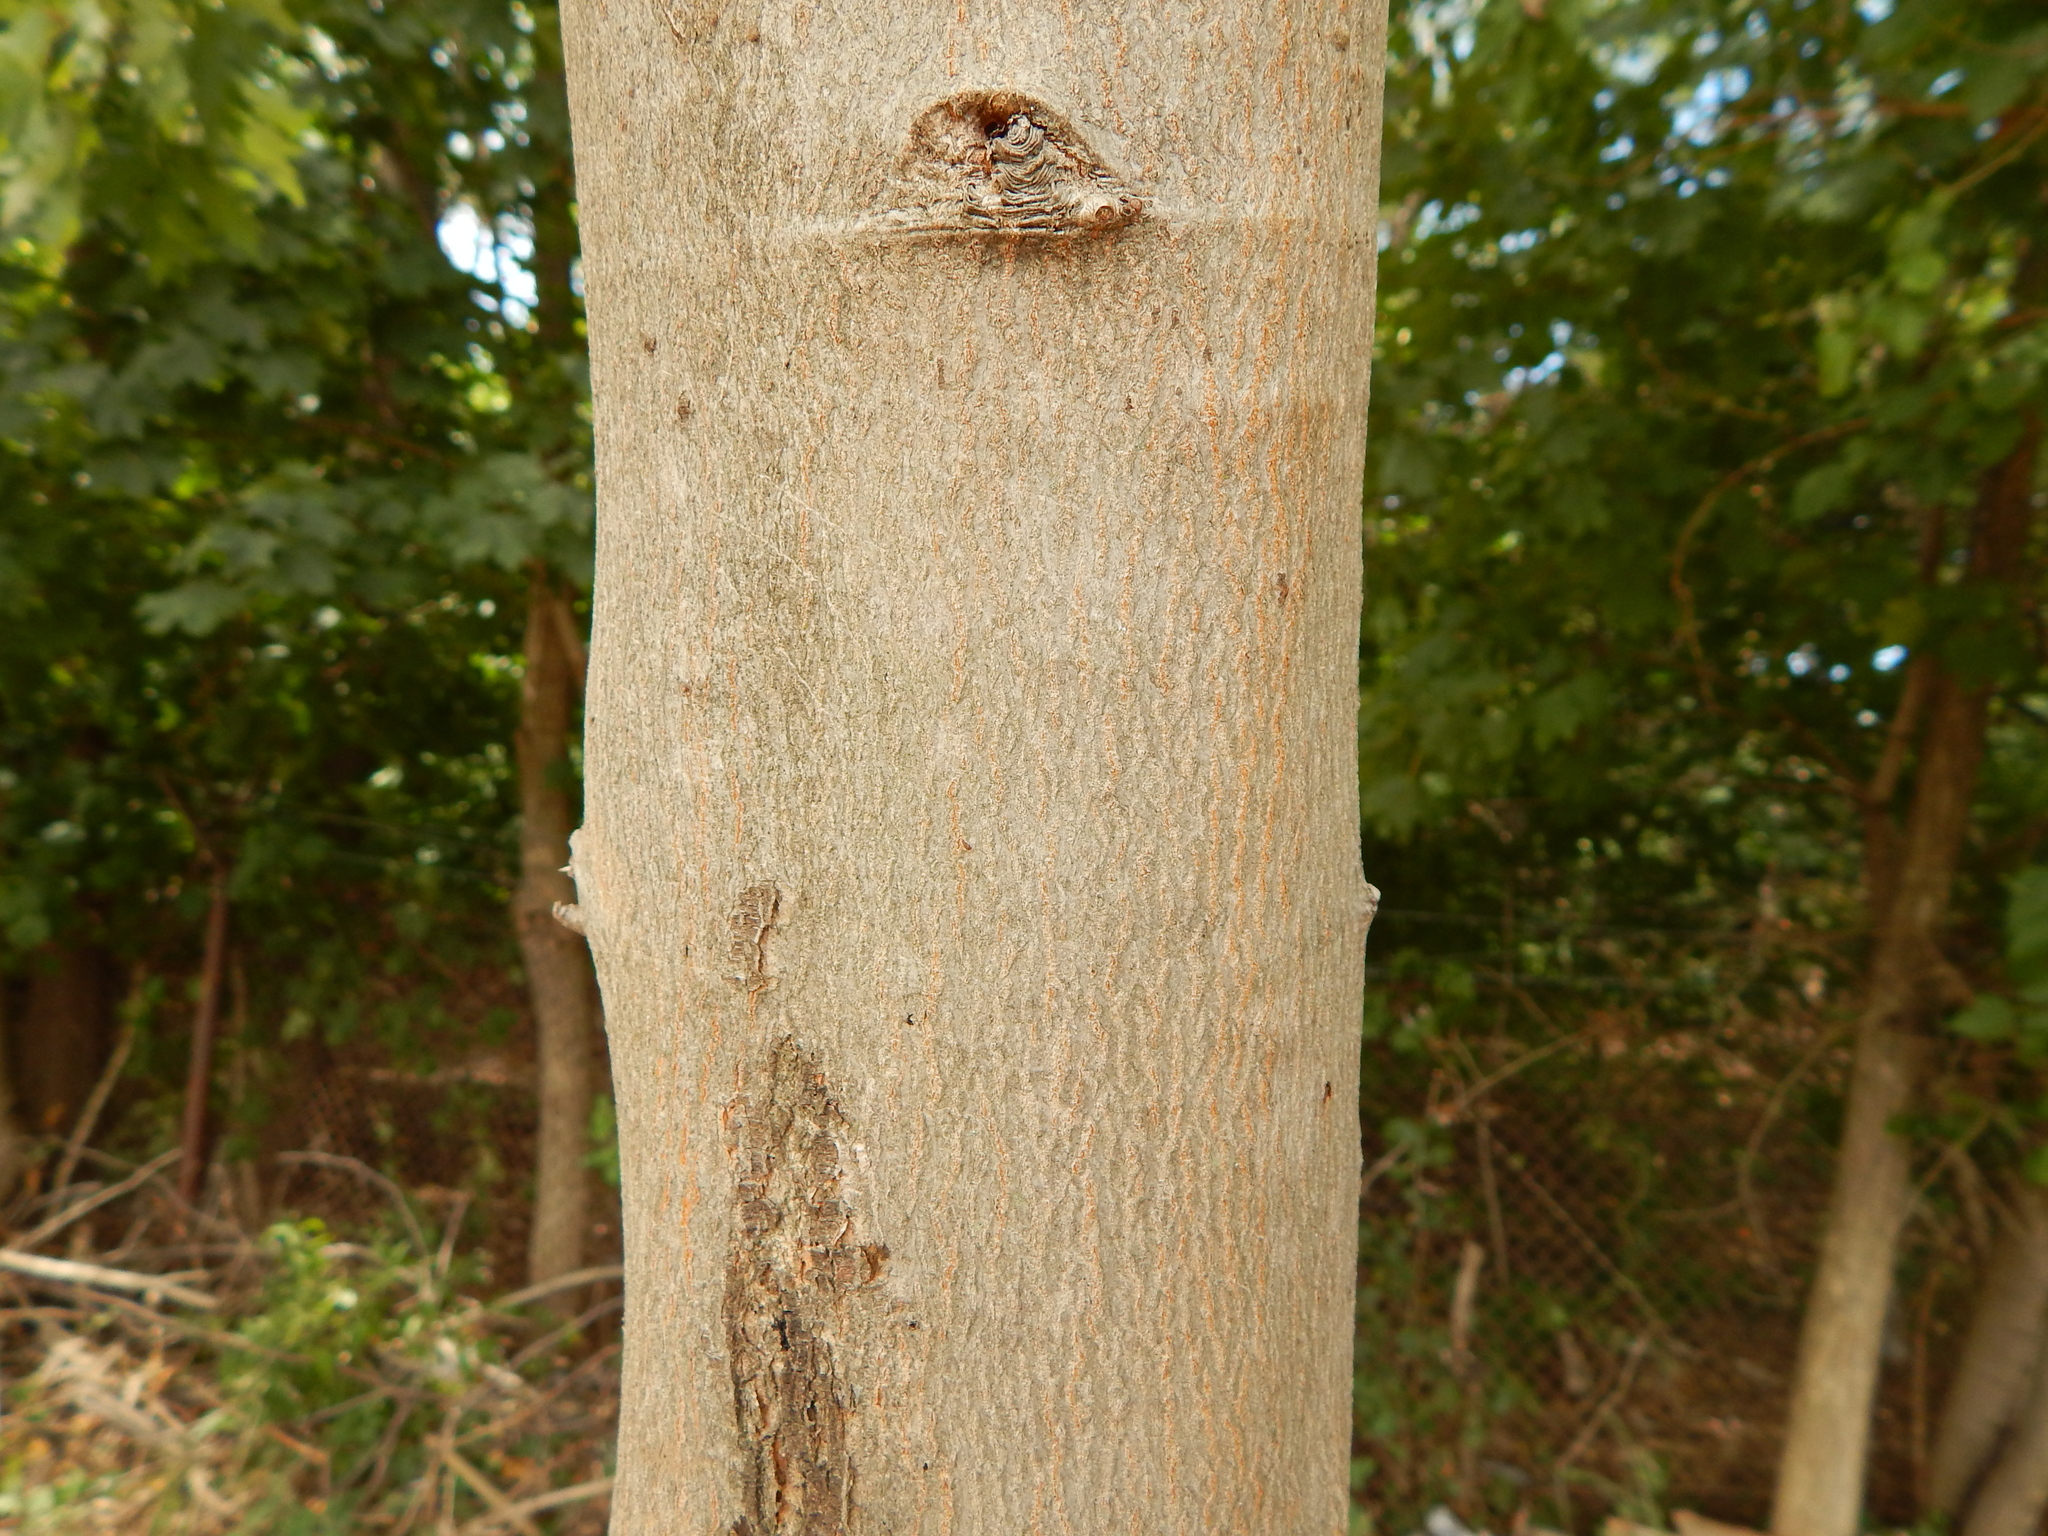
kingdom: Plantae
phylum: Tracheophyta
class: Magnoliopsida
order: Sapindales
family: Sapindaceae
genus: Acer
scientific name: Acer saccharinum
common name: Silver maple
